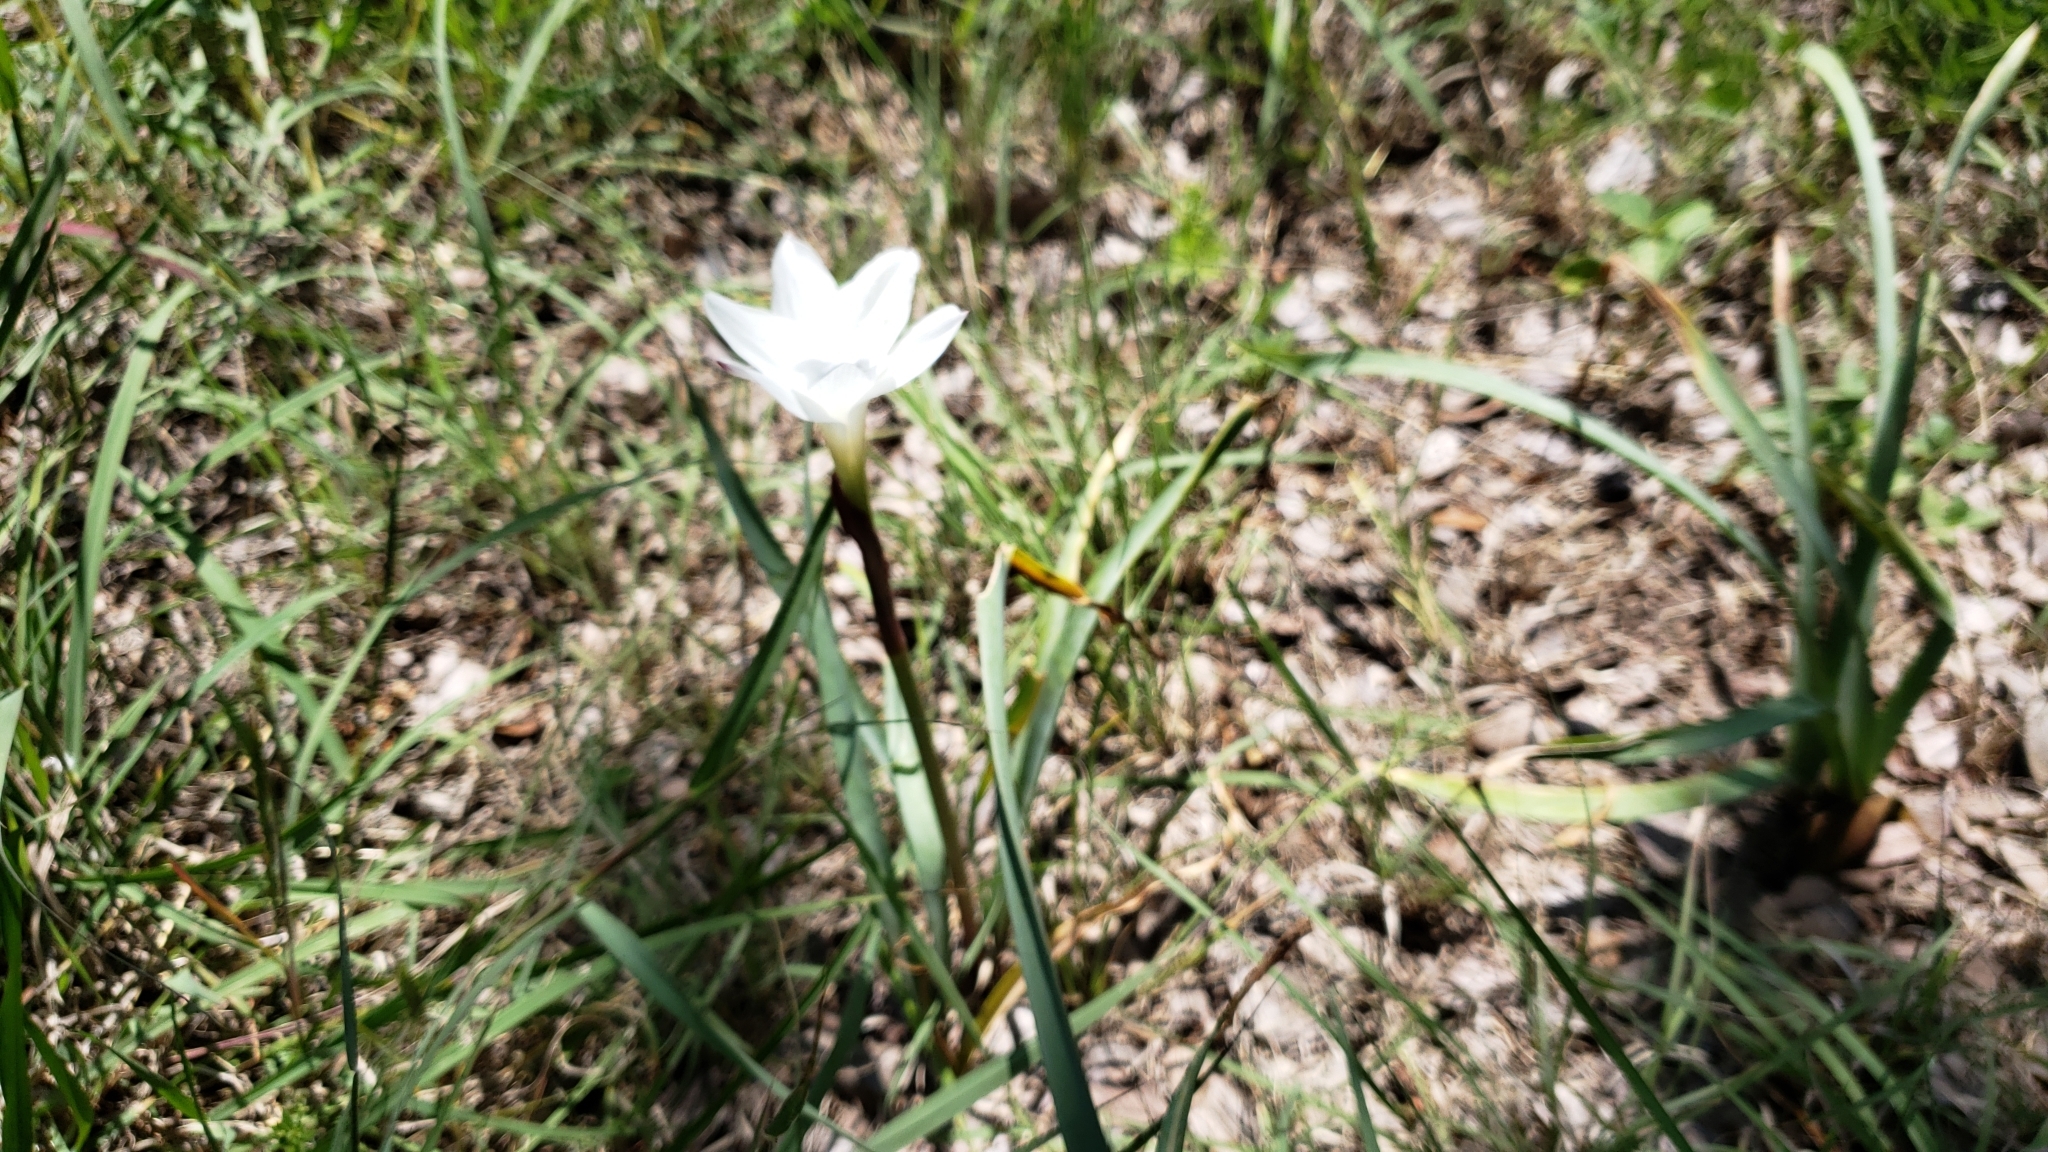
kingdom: Plantae
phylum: Tracheophyta
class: Liliopsida
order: Asparagales
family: Amaryllidaceae
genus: Zephyranthes
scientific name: Zephyranthes drummondii
